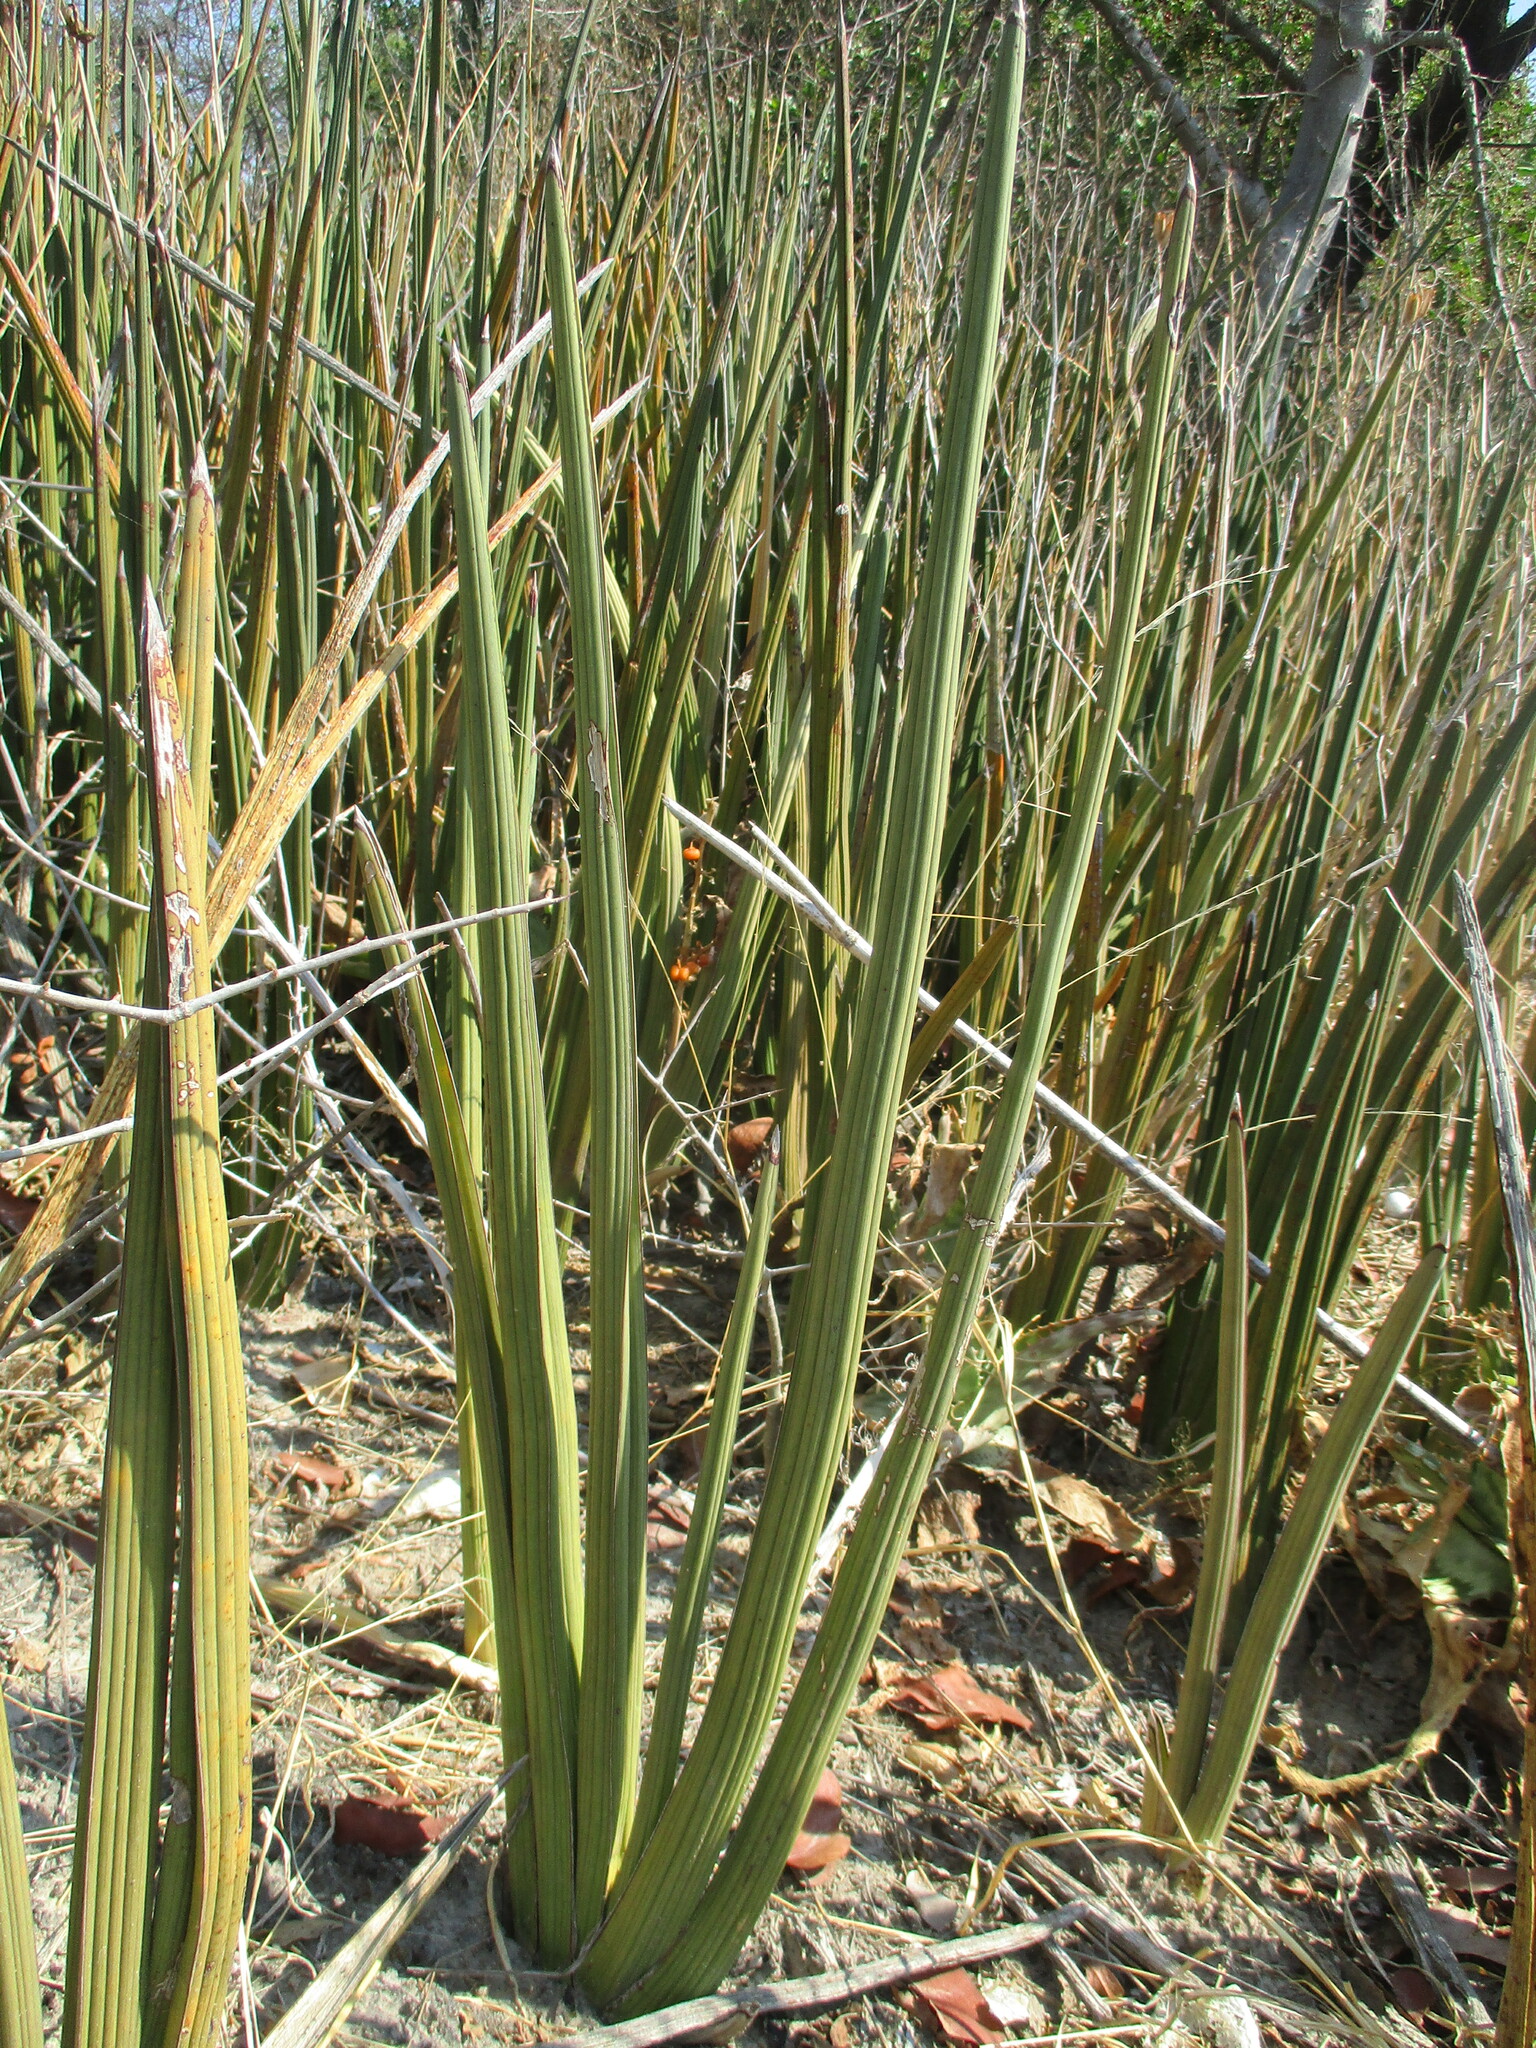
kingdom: Plantae
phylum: Tracheophyta
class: Liliopsida
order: Asparagales
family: Asparagaceae
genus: Dracaena
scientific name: Dracaena pearsonii
